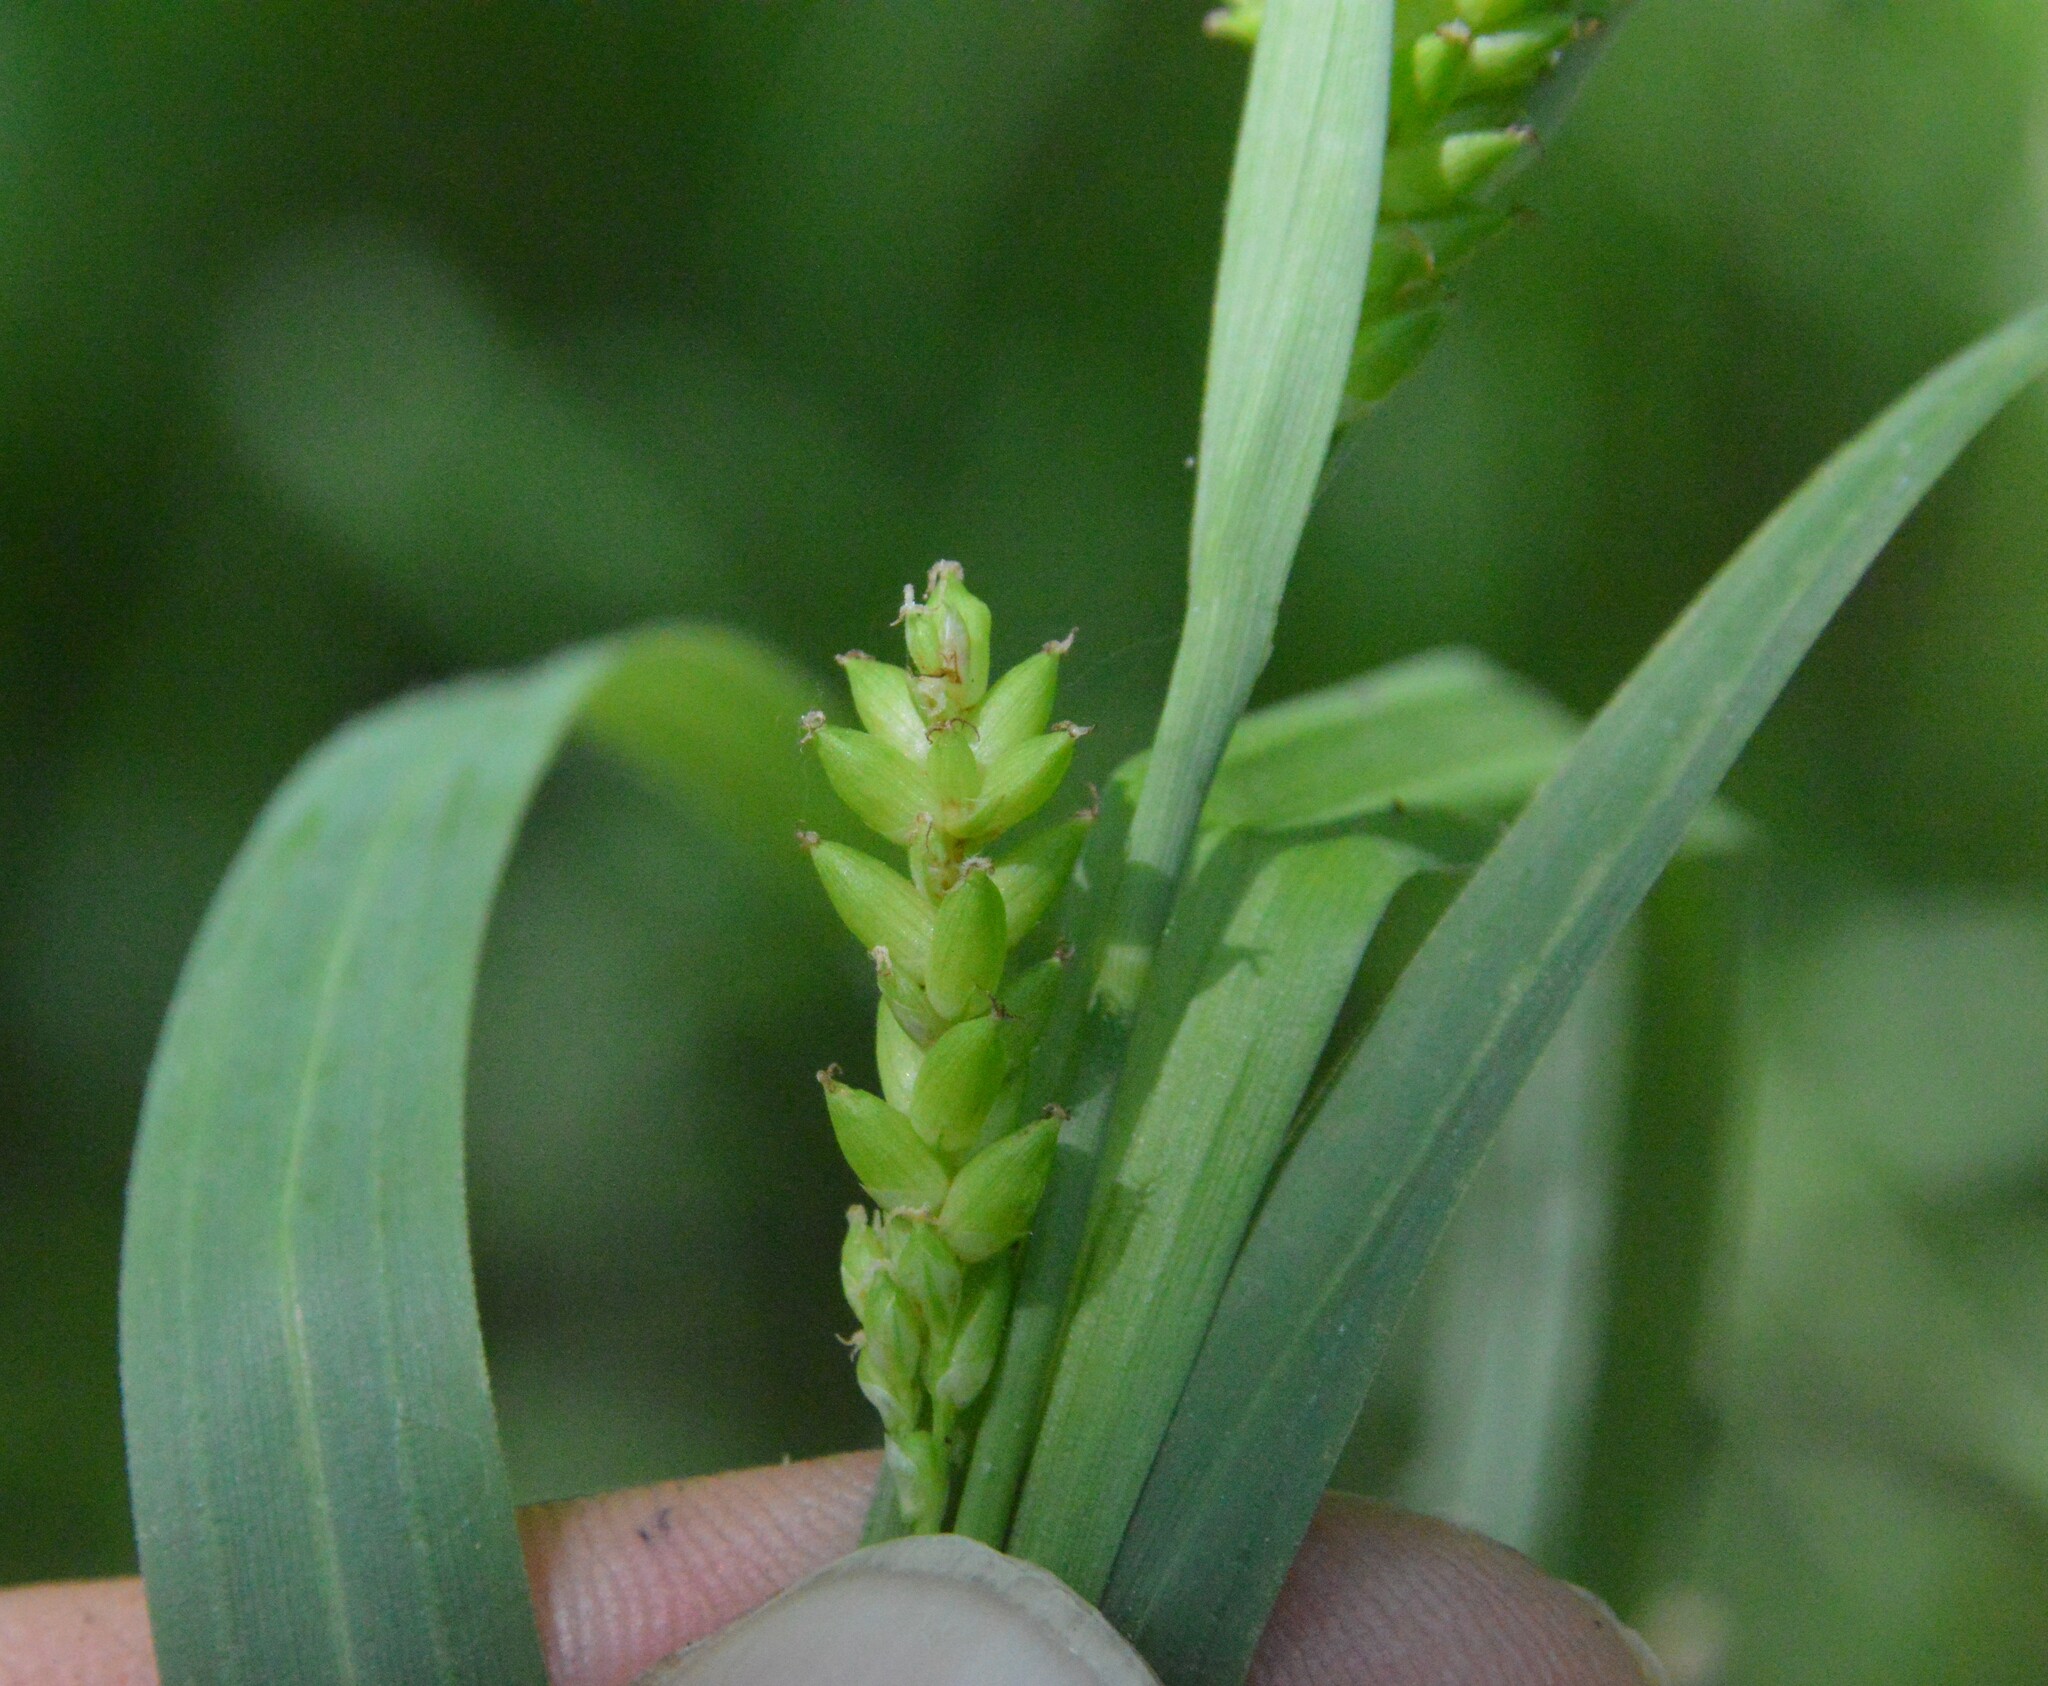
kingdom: Plantae
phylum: Tracheophyta
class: Liliopsida
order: Poales
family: Cyperaceae
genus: Carex
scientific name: Carex flaccosperma
